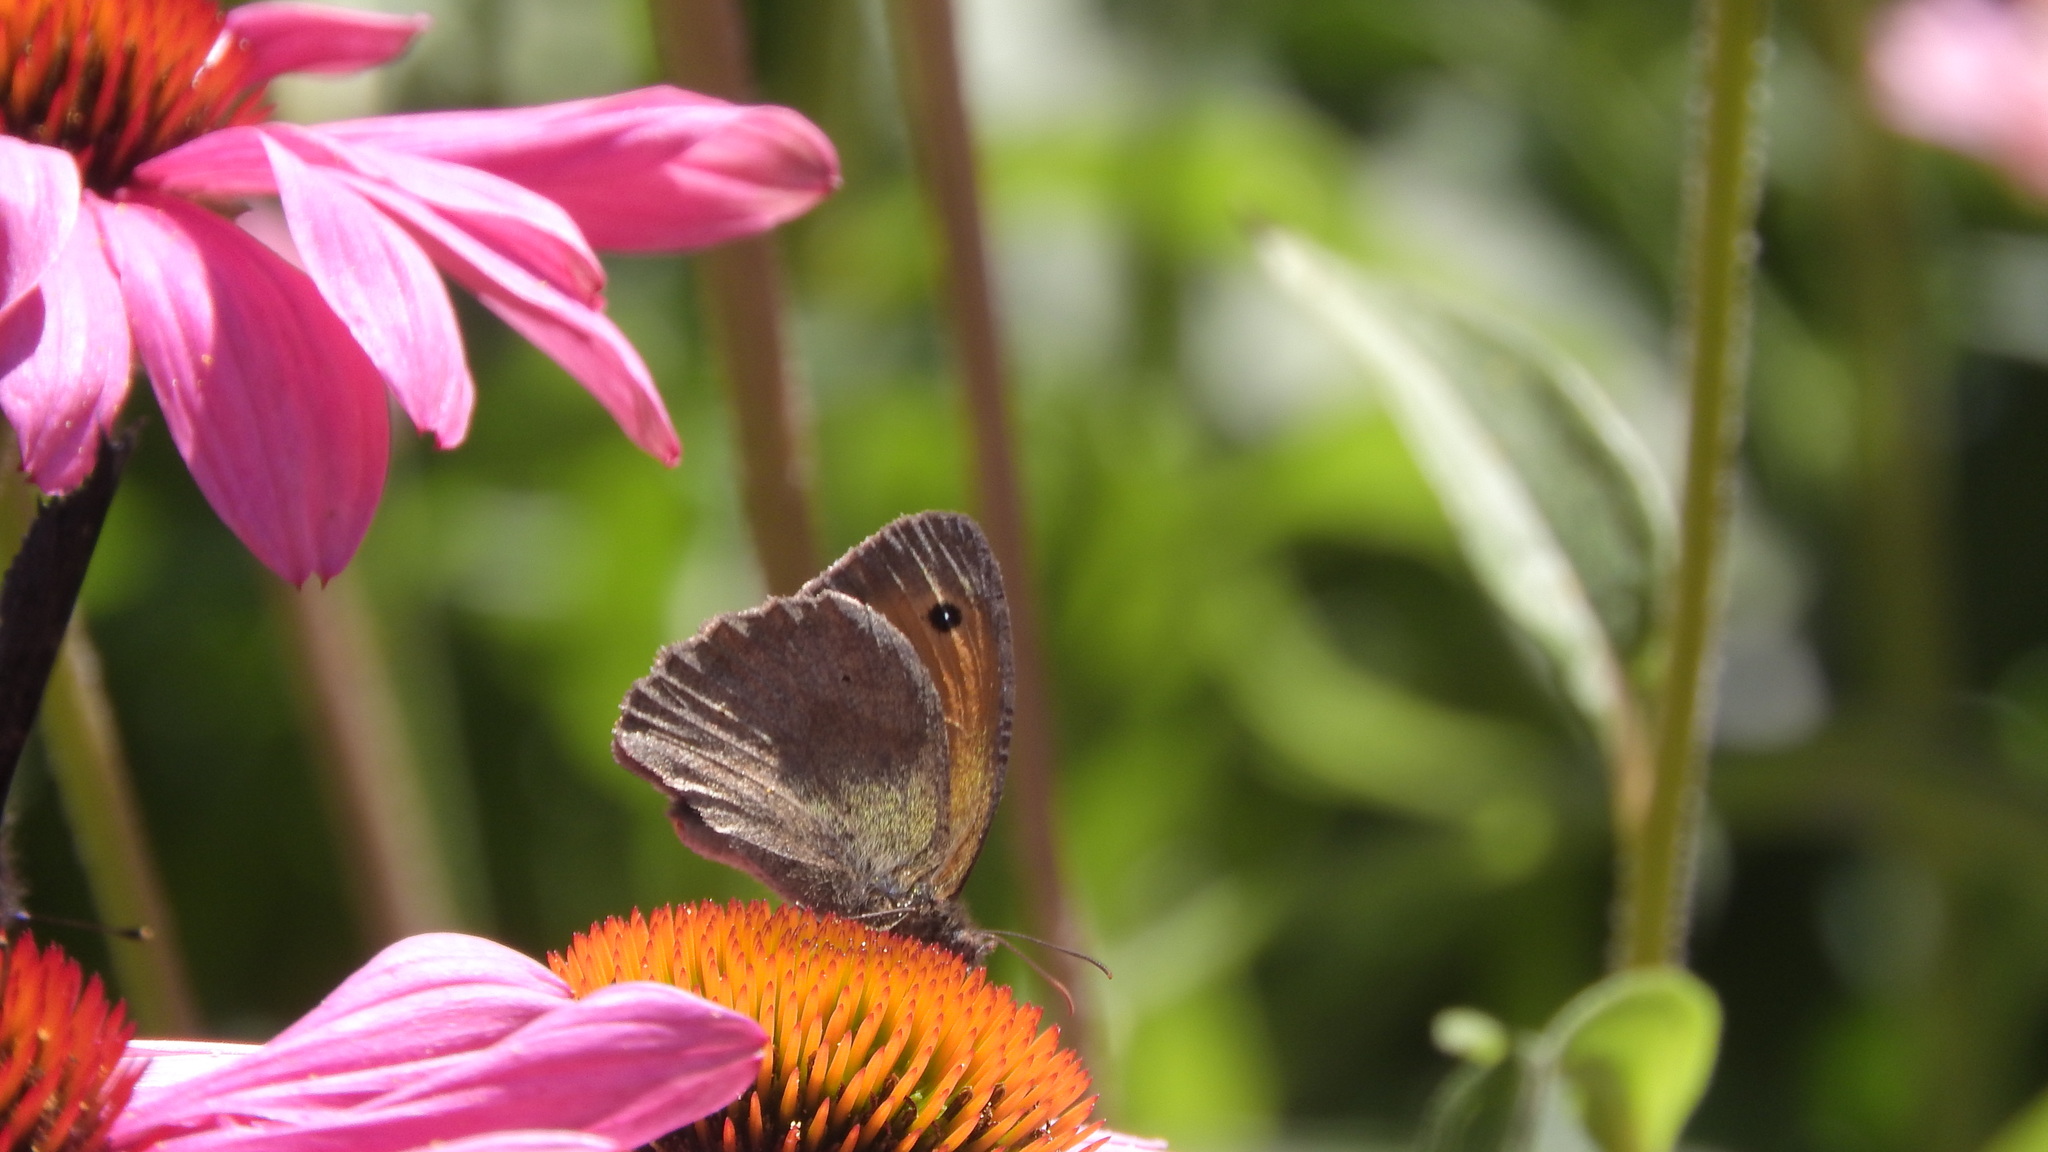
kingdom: Animalia
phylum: Arthropoda
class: Insecta
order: Lepidoptera
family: Nymphalidae
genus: Maniola
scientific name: Maniola jurtina
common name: Meadow brown
